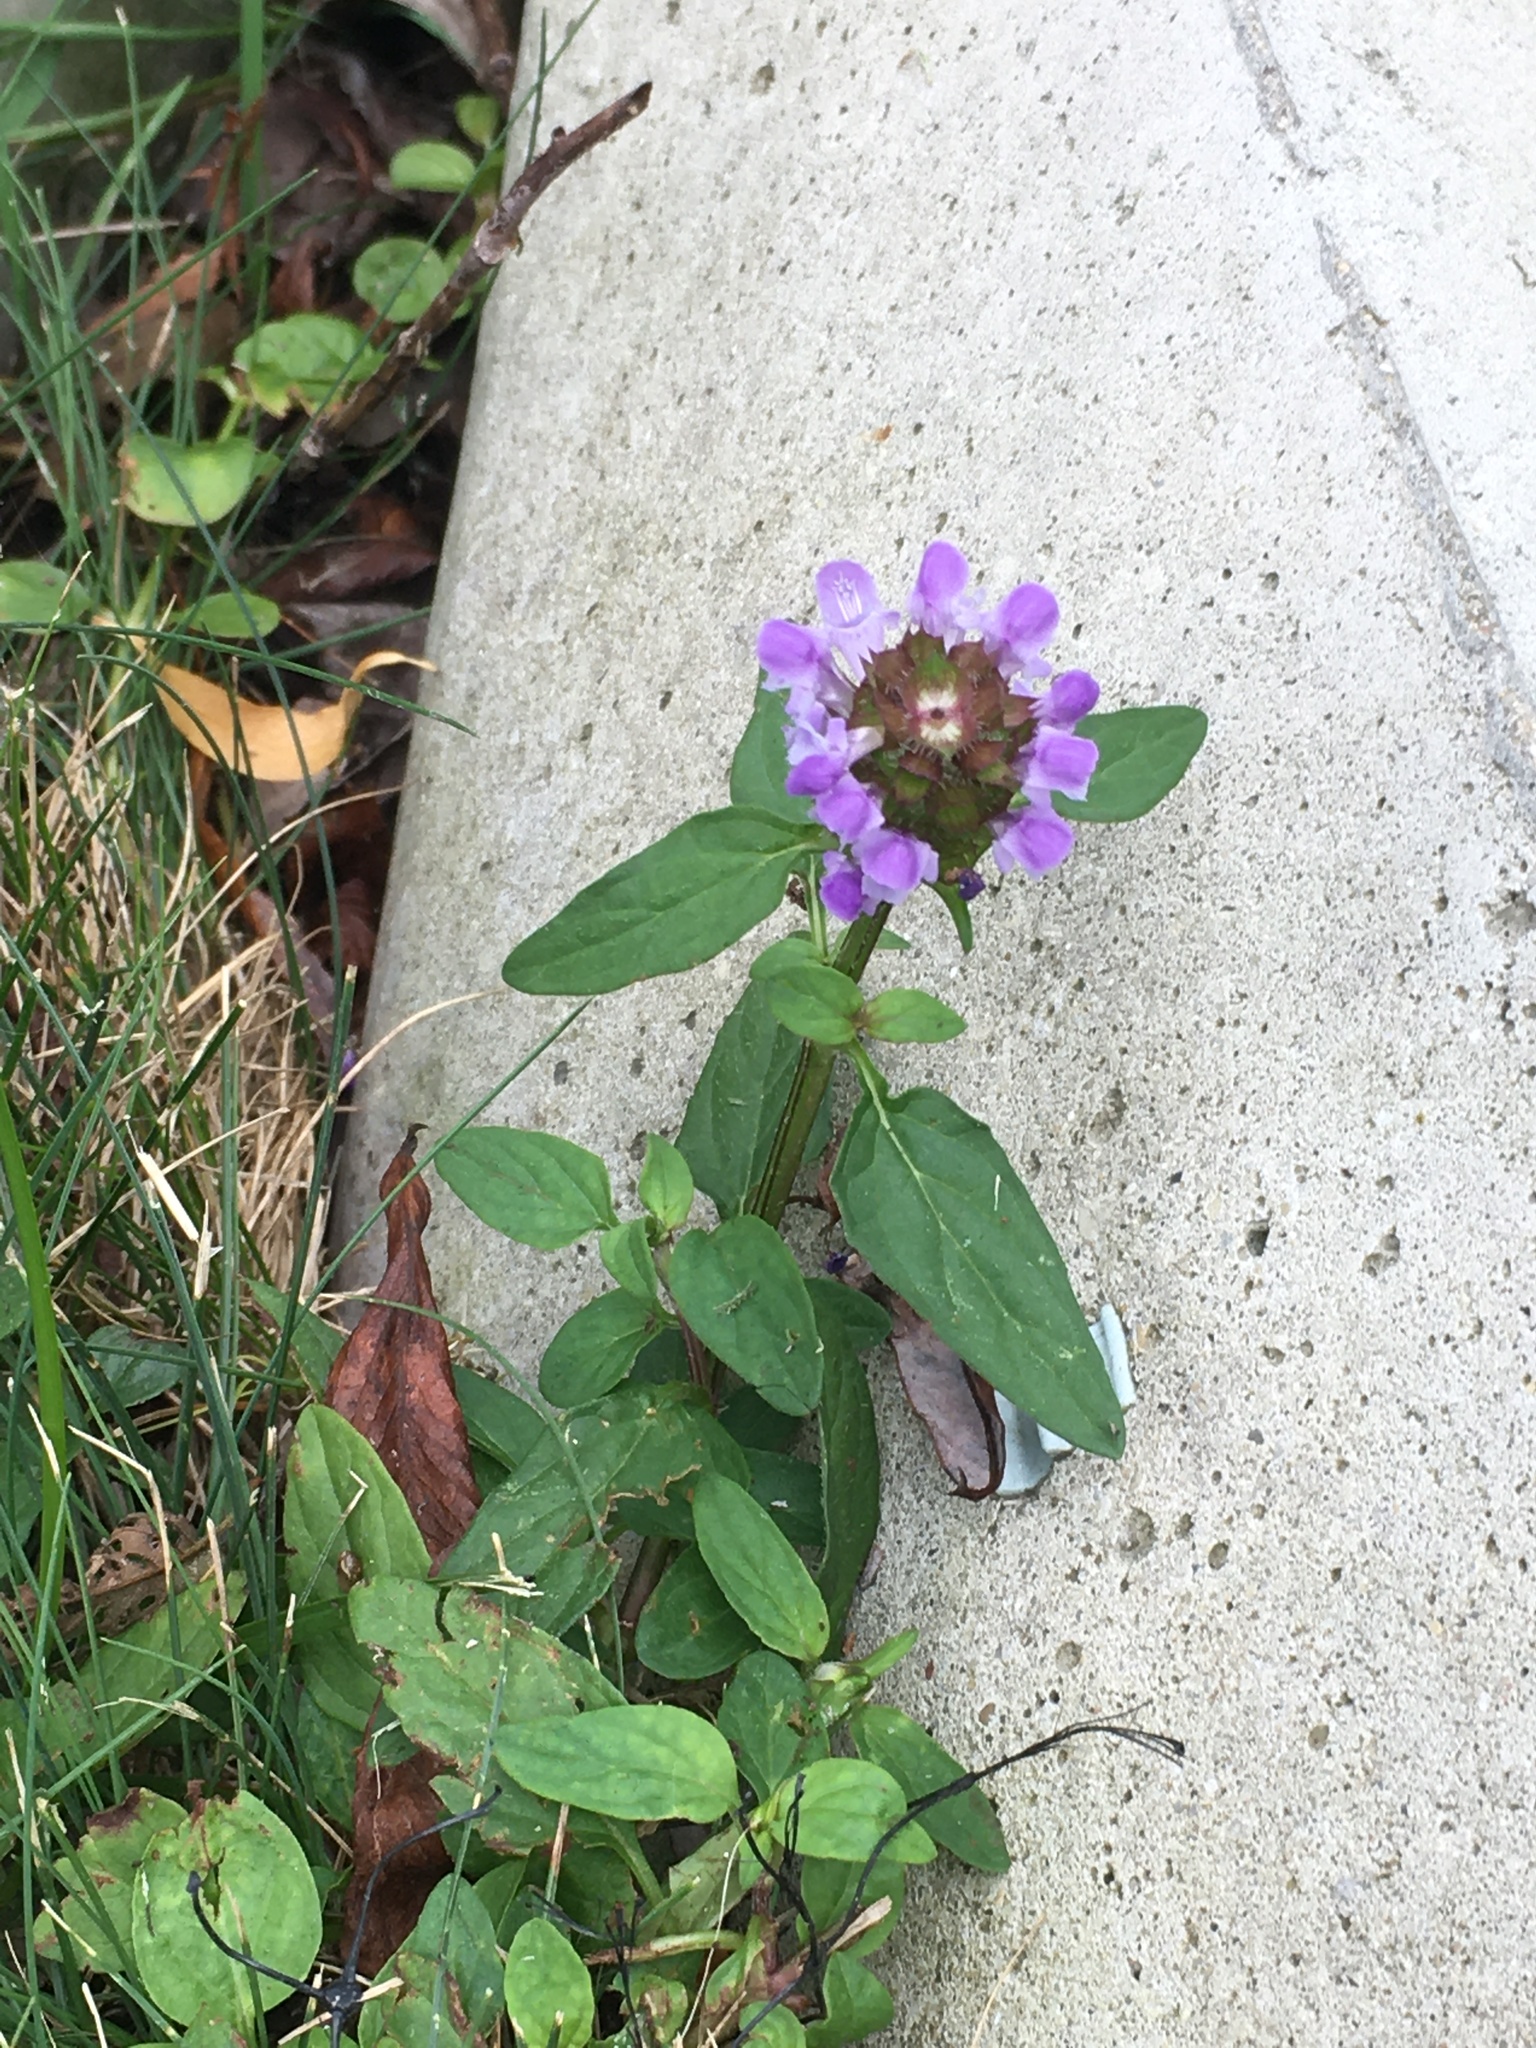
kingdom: Plantae
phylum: Tracheophyta
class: Magnoliopsida
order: Lamiales
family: Lamiaceae
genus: Prunella
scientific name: Prunella vulgaris
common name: Heal-all
